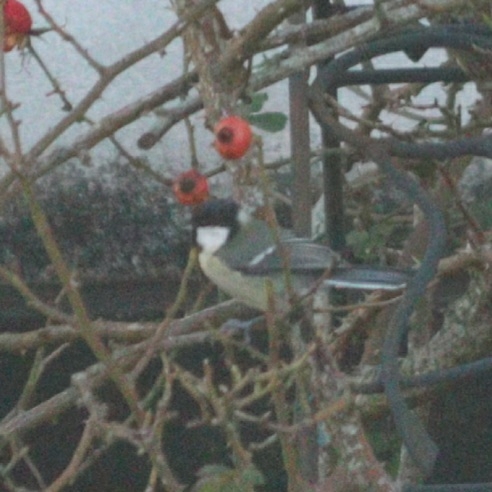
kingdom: Animalia
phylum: Chordata
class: Aves
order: Passeriformes
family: Paridae
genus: Parus
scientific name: Parus major
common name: Great tit
